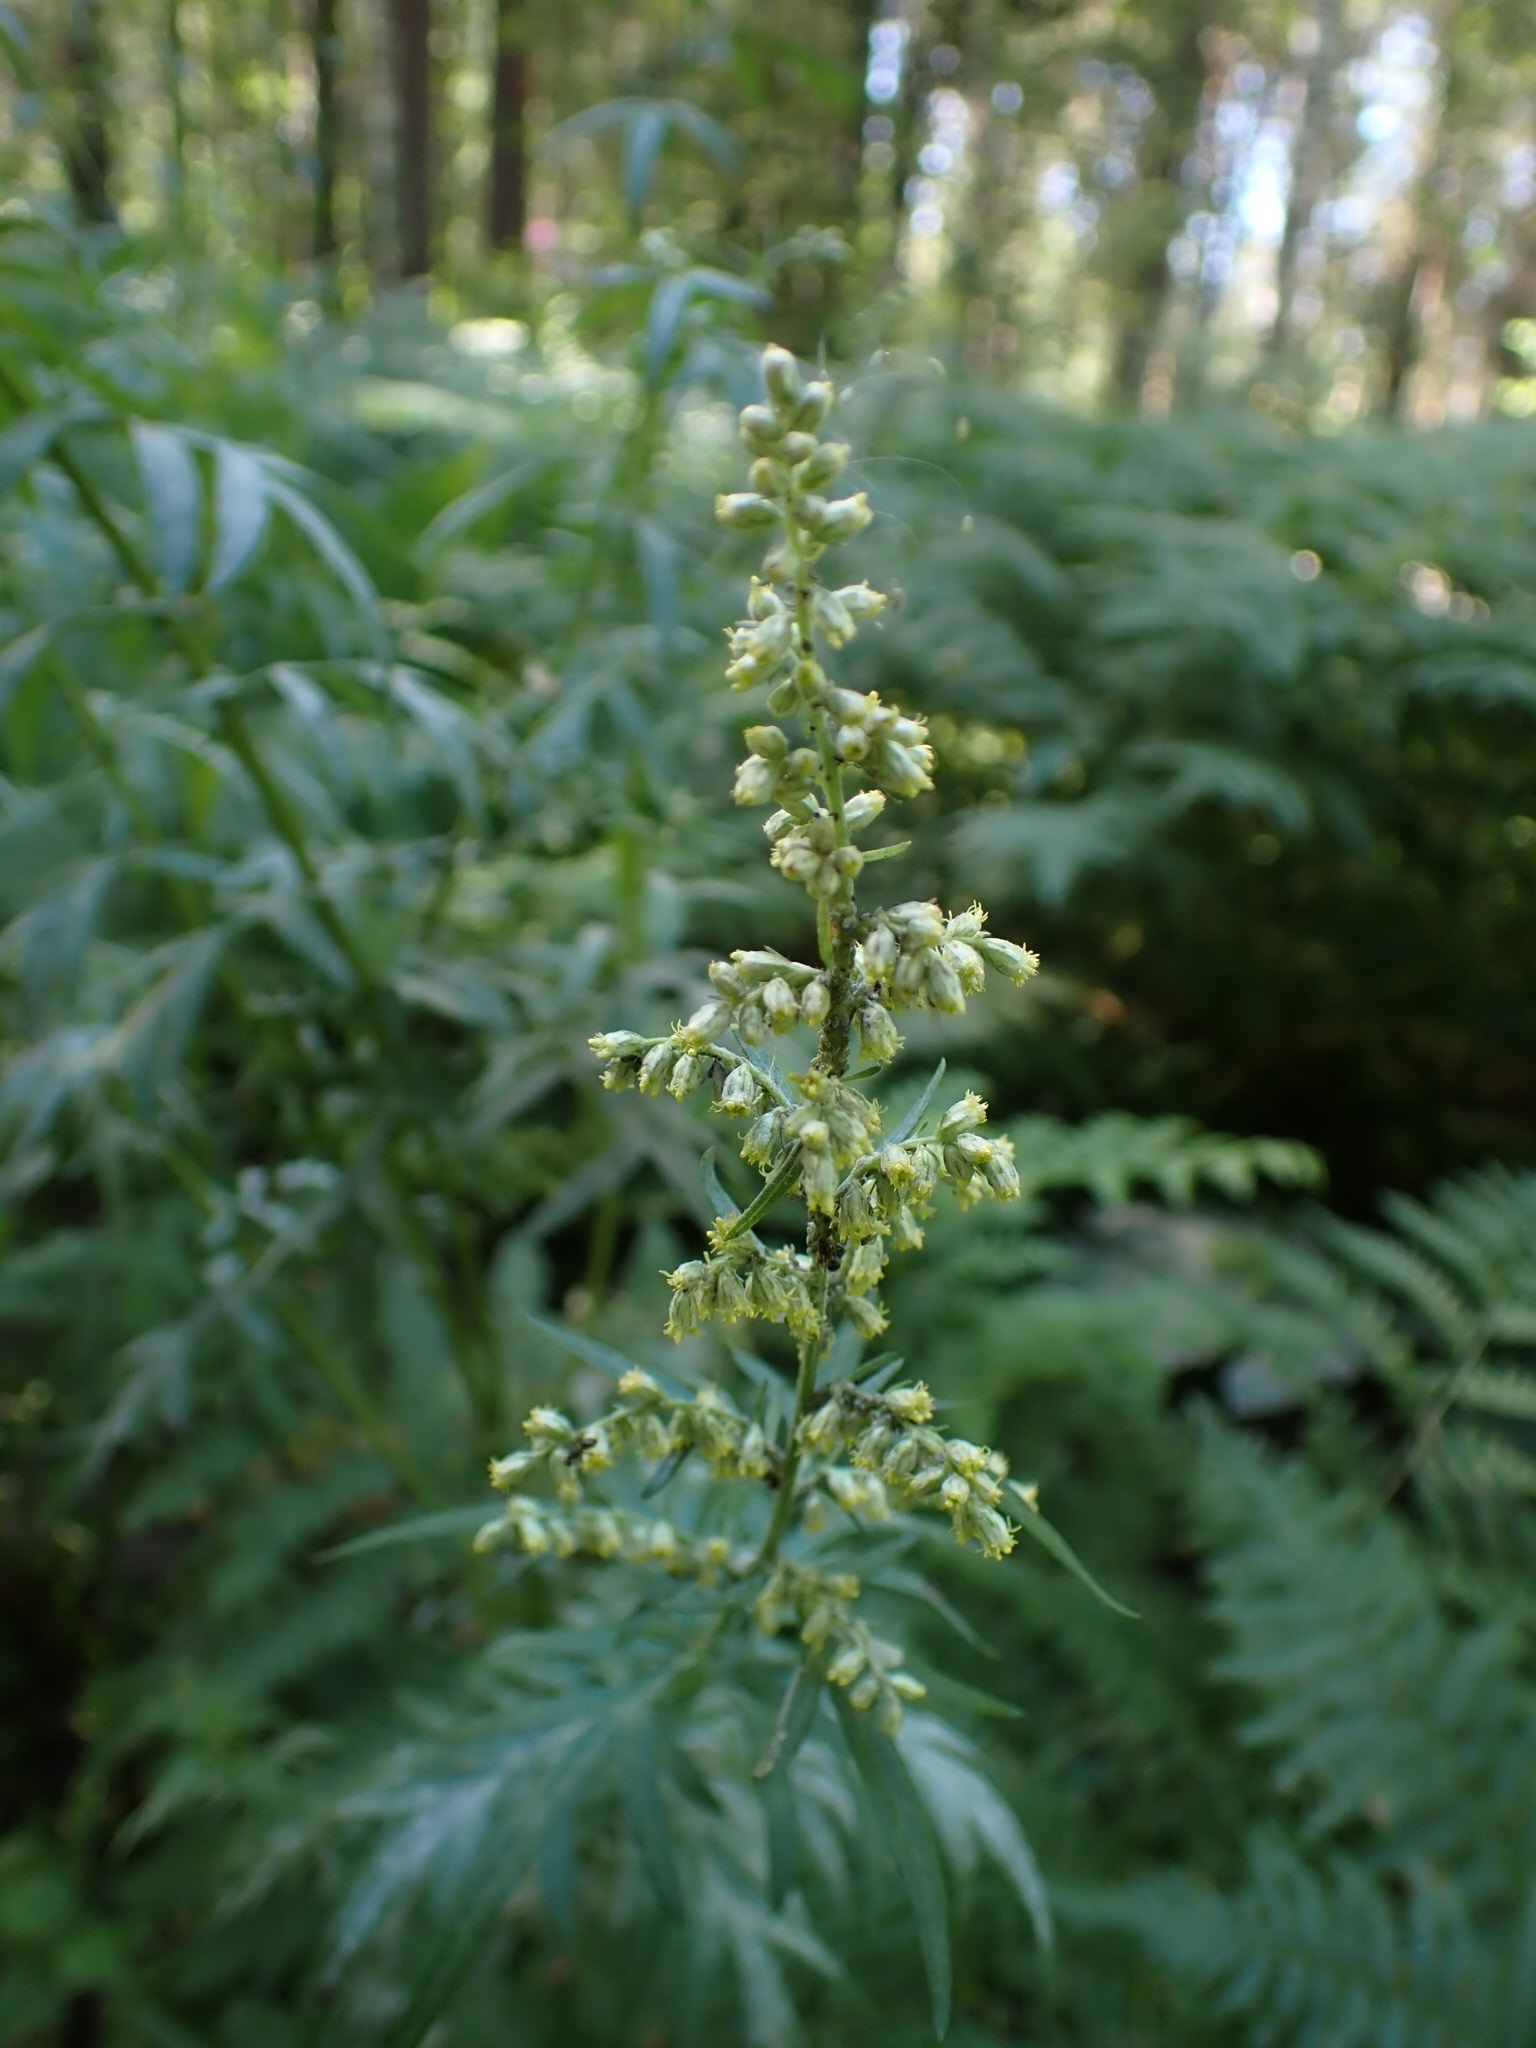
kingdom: Plantae
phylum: Tracheophyta
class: Magnoliopsida
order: Asterales
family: Asteraceae
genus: Artemisia
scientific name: Artemisia vulgaris
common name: Mugwort
